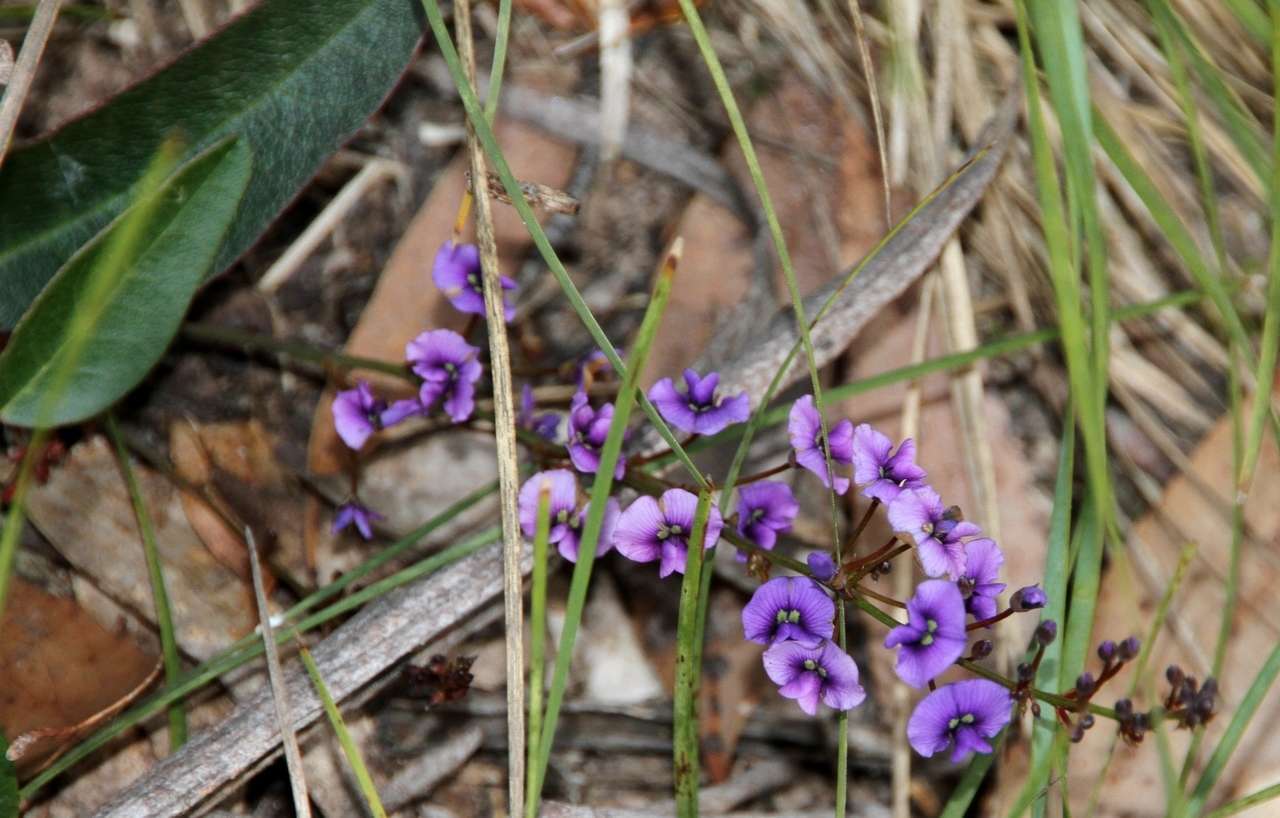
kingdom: Plantae
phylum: Tracheophyta
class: Magnoliopsida
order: Fabales
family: Fabaceae
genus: Hardenbergia
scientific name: Hardenbergia violacea
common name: Coral-pea
